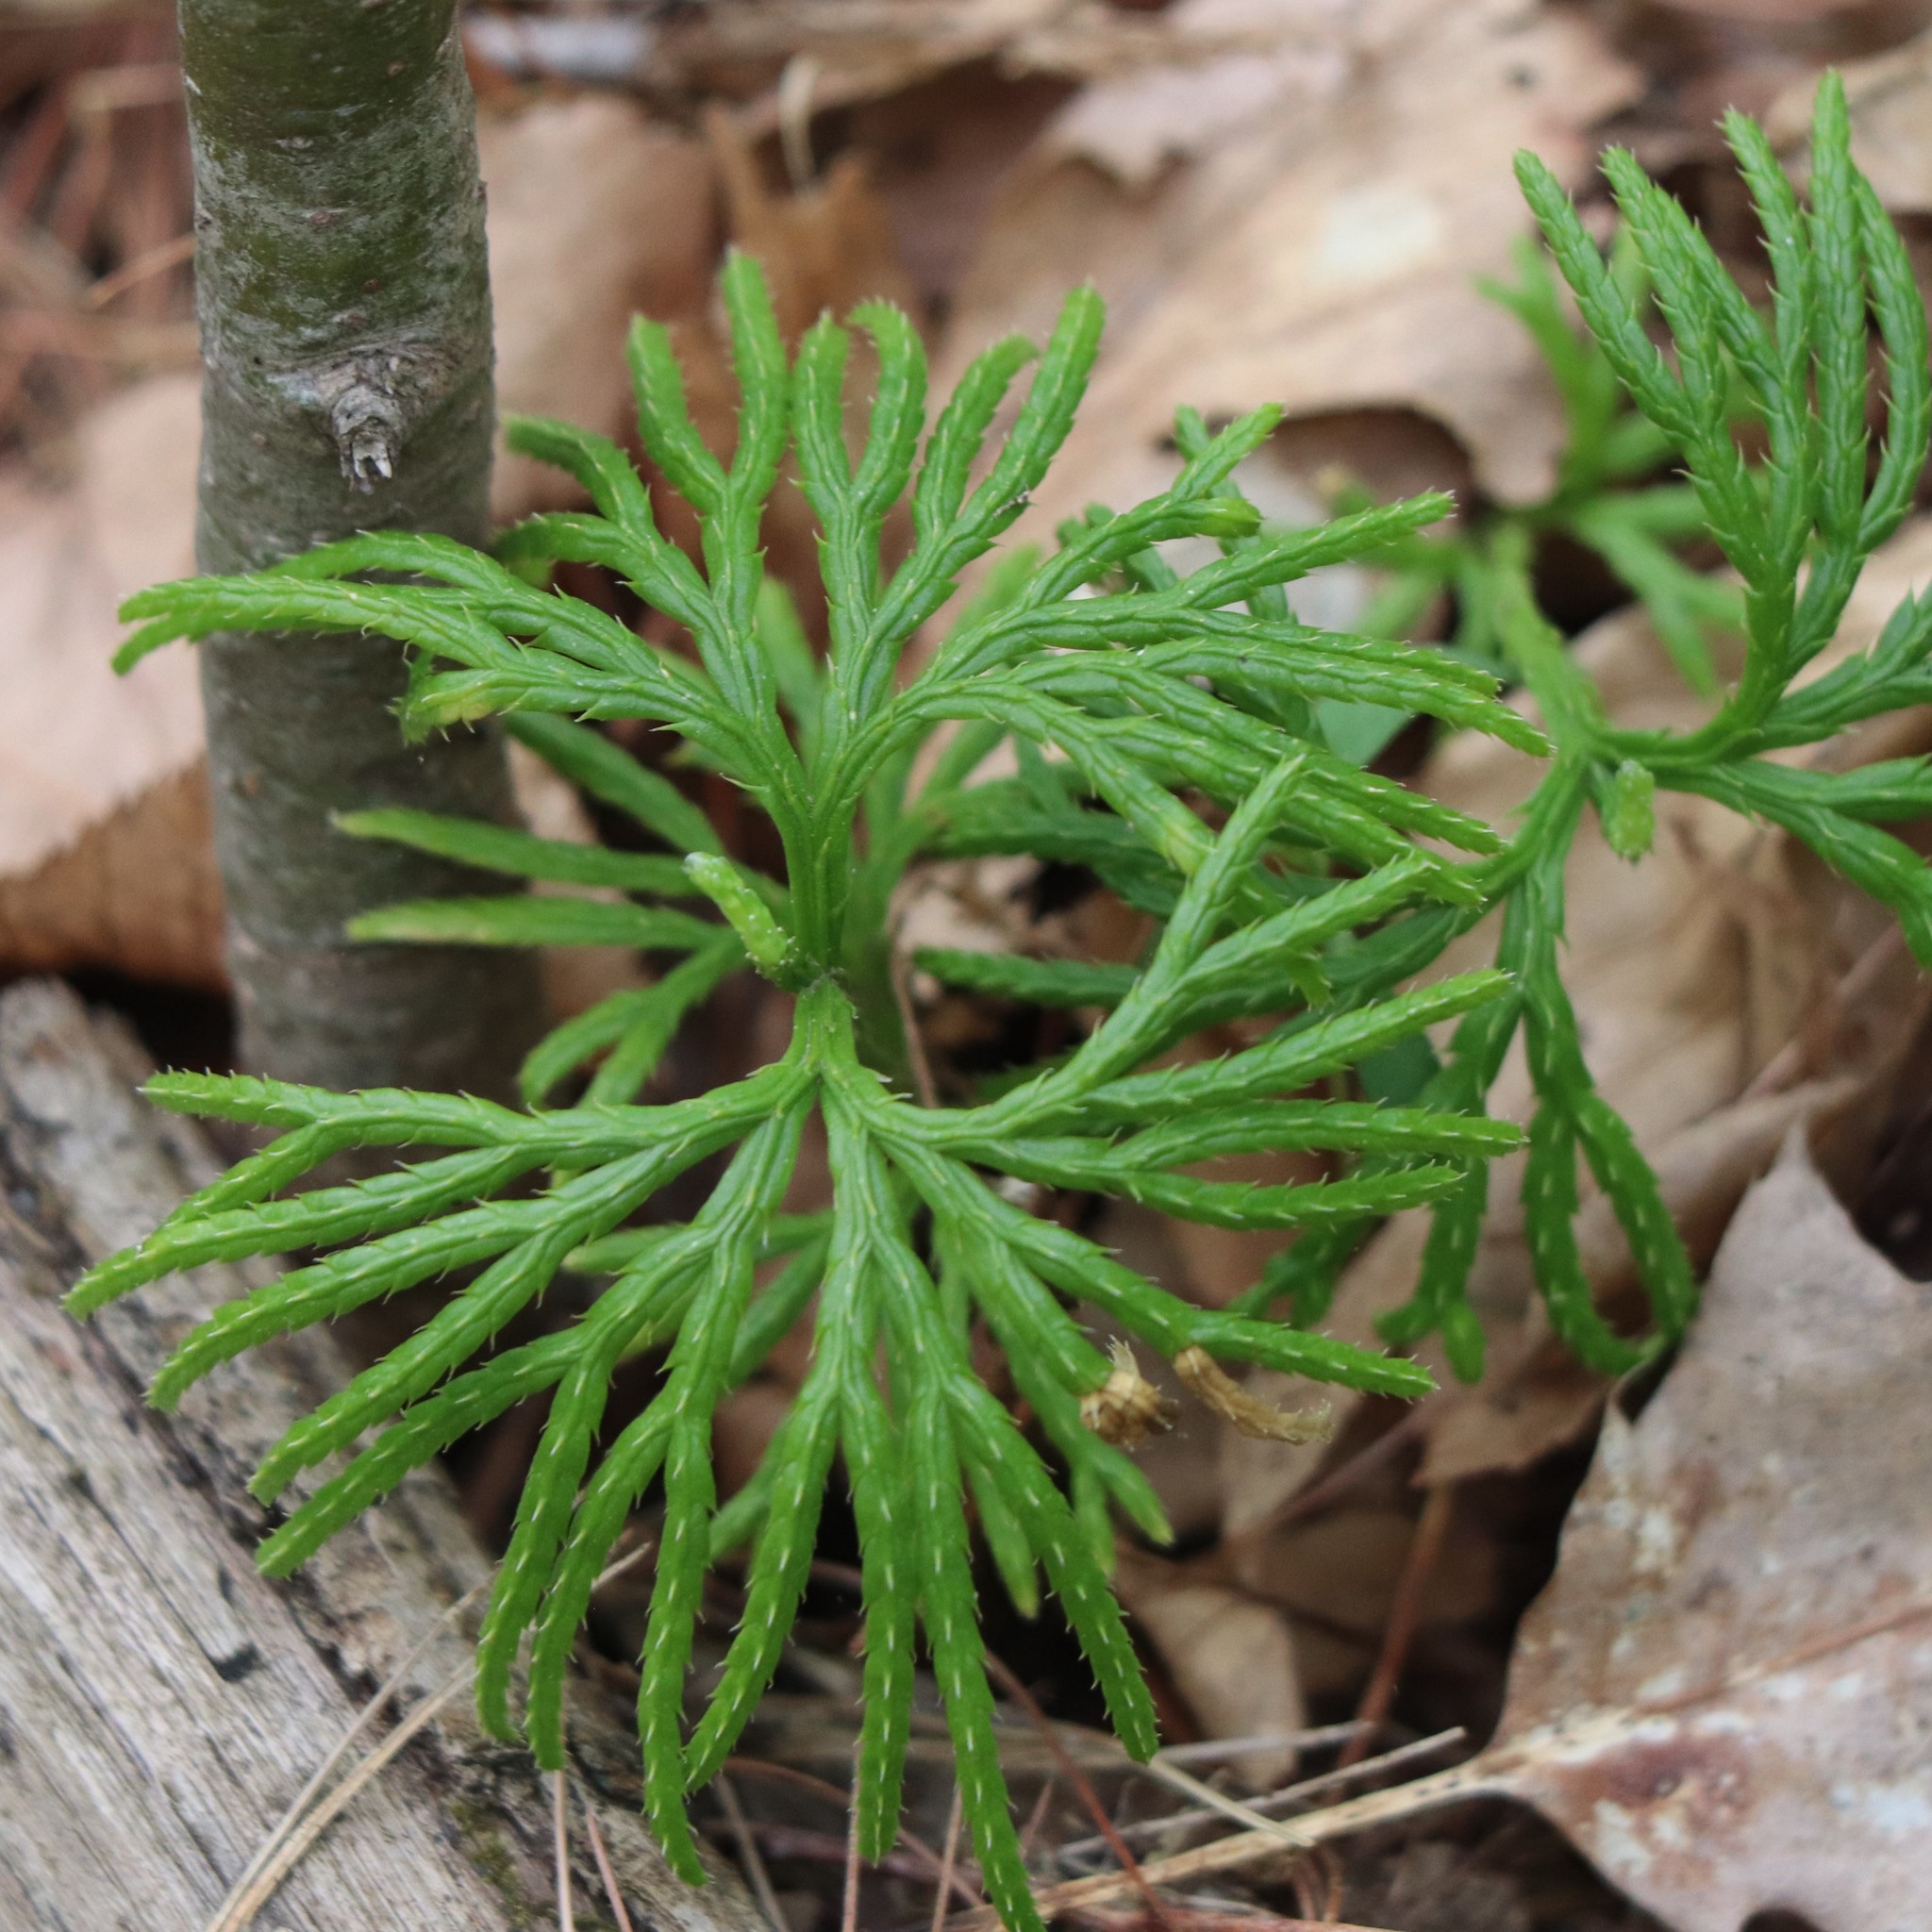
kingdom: Plantae
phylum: Tracheophyta
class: Lycopodiopsida
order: Lycopodiales
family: Lycopodiaceae
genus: Diphasiastrum
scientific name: Diphasiastrum digitatum
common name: Southern running-pine
